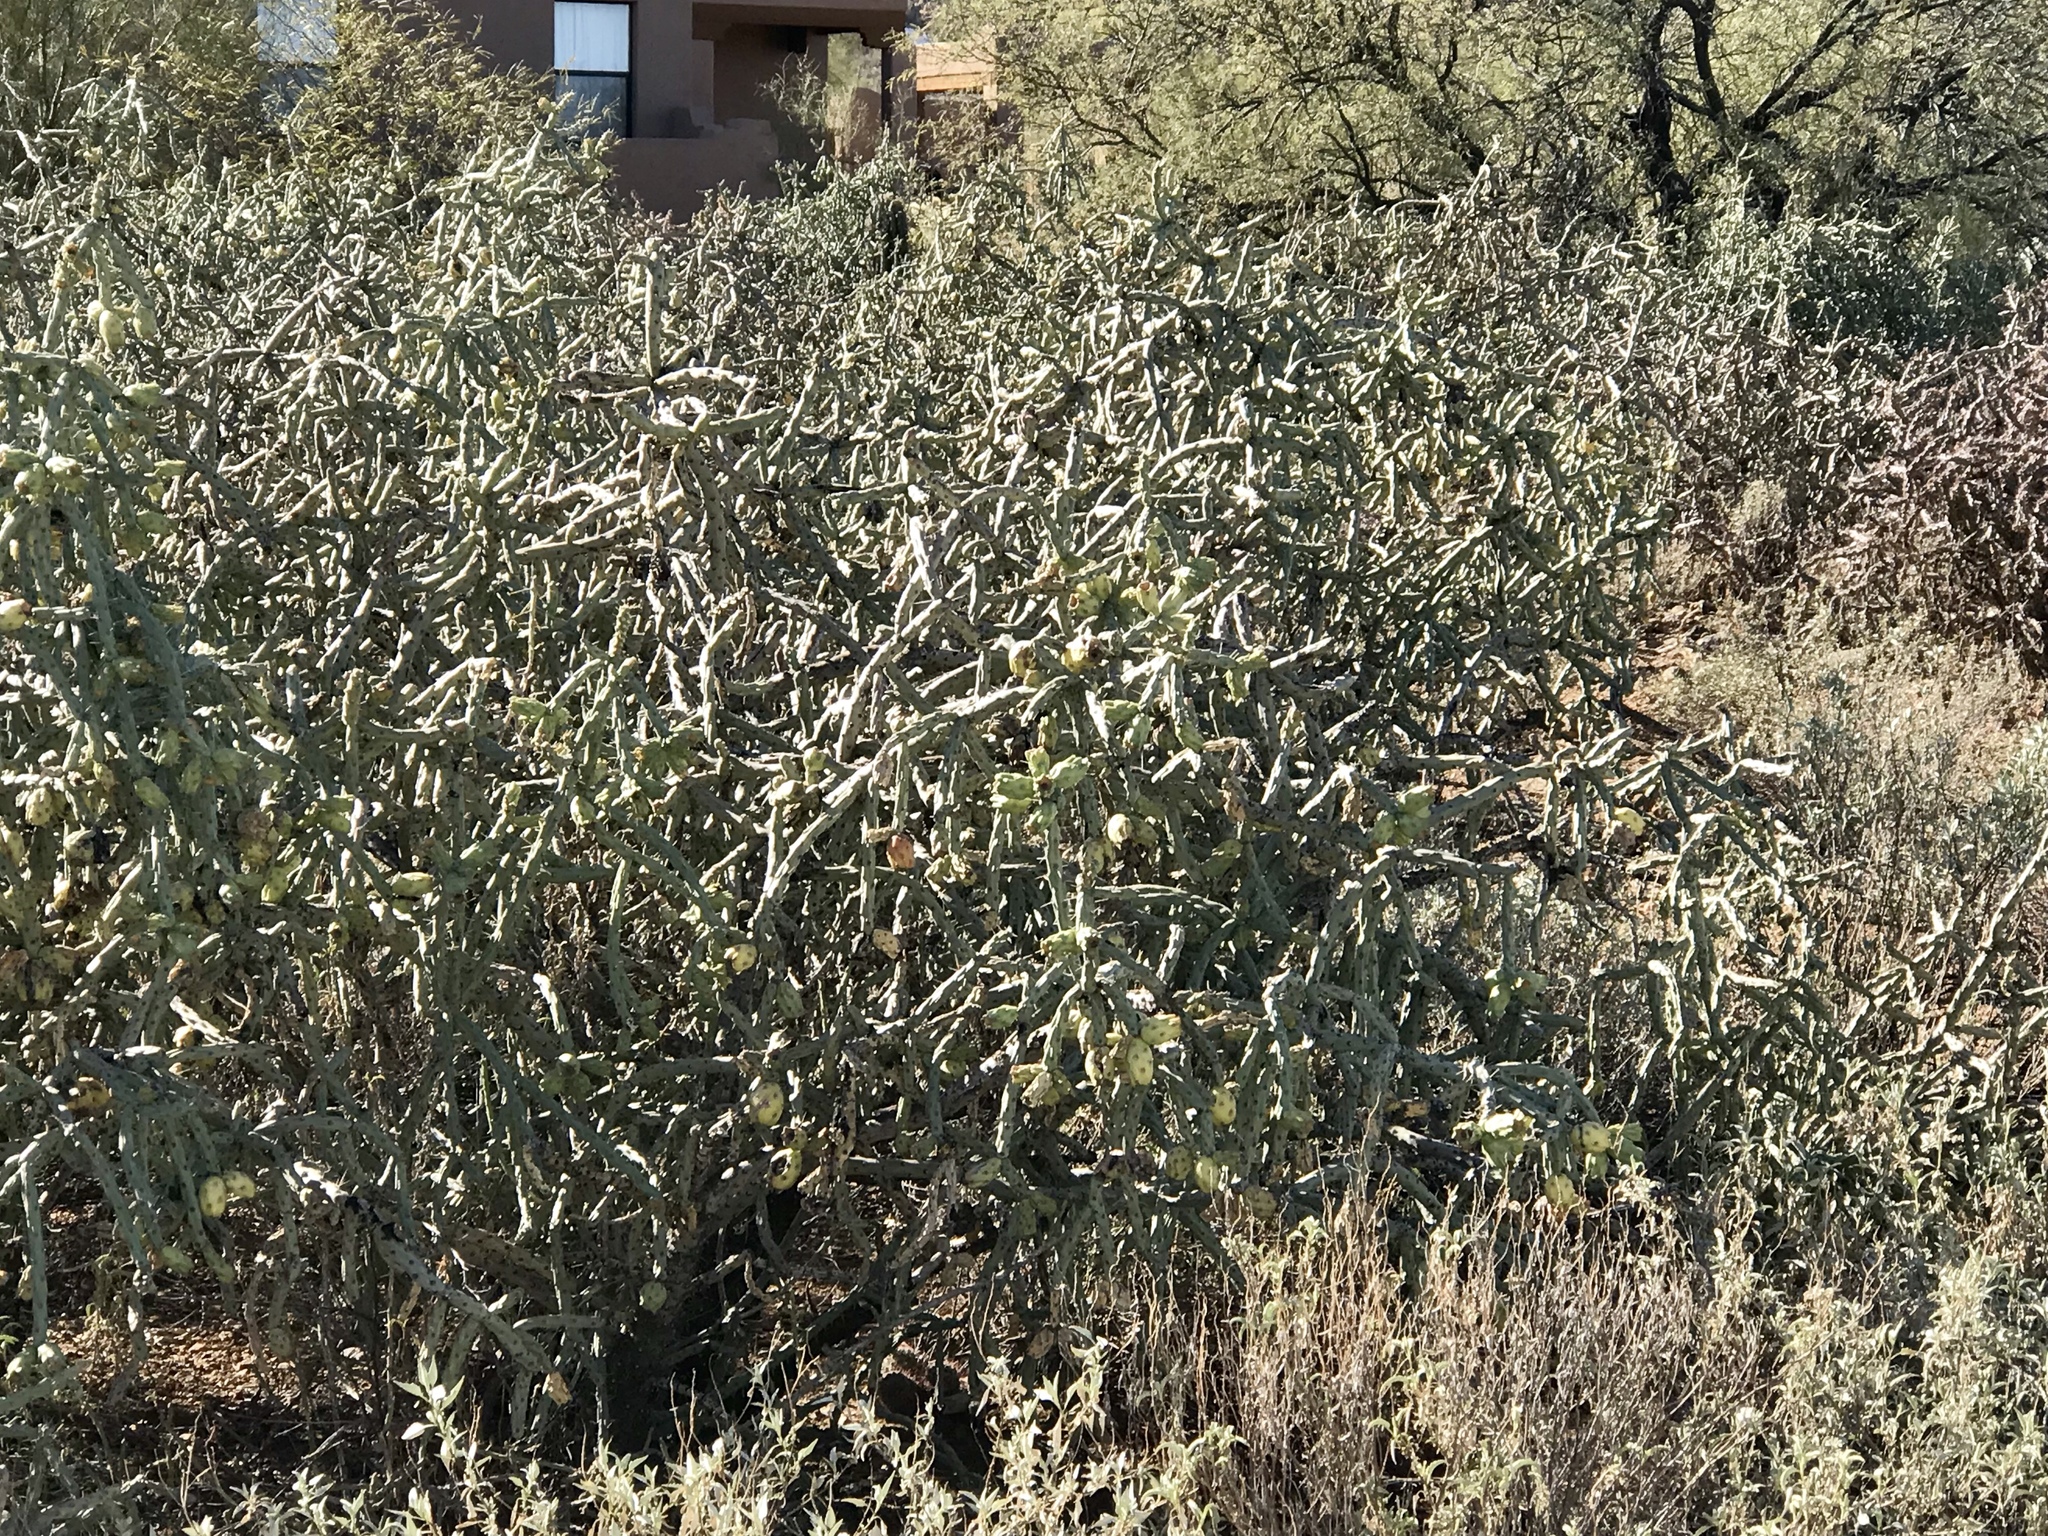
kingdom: Plantae
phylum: Tracheophyta
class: Magnoliopsida
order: Caryophyllales
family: Cactaceae
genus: Cylindropuntia
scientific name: Cylindropuntia arbuscula
